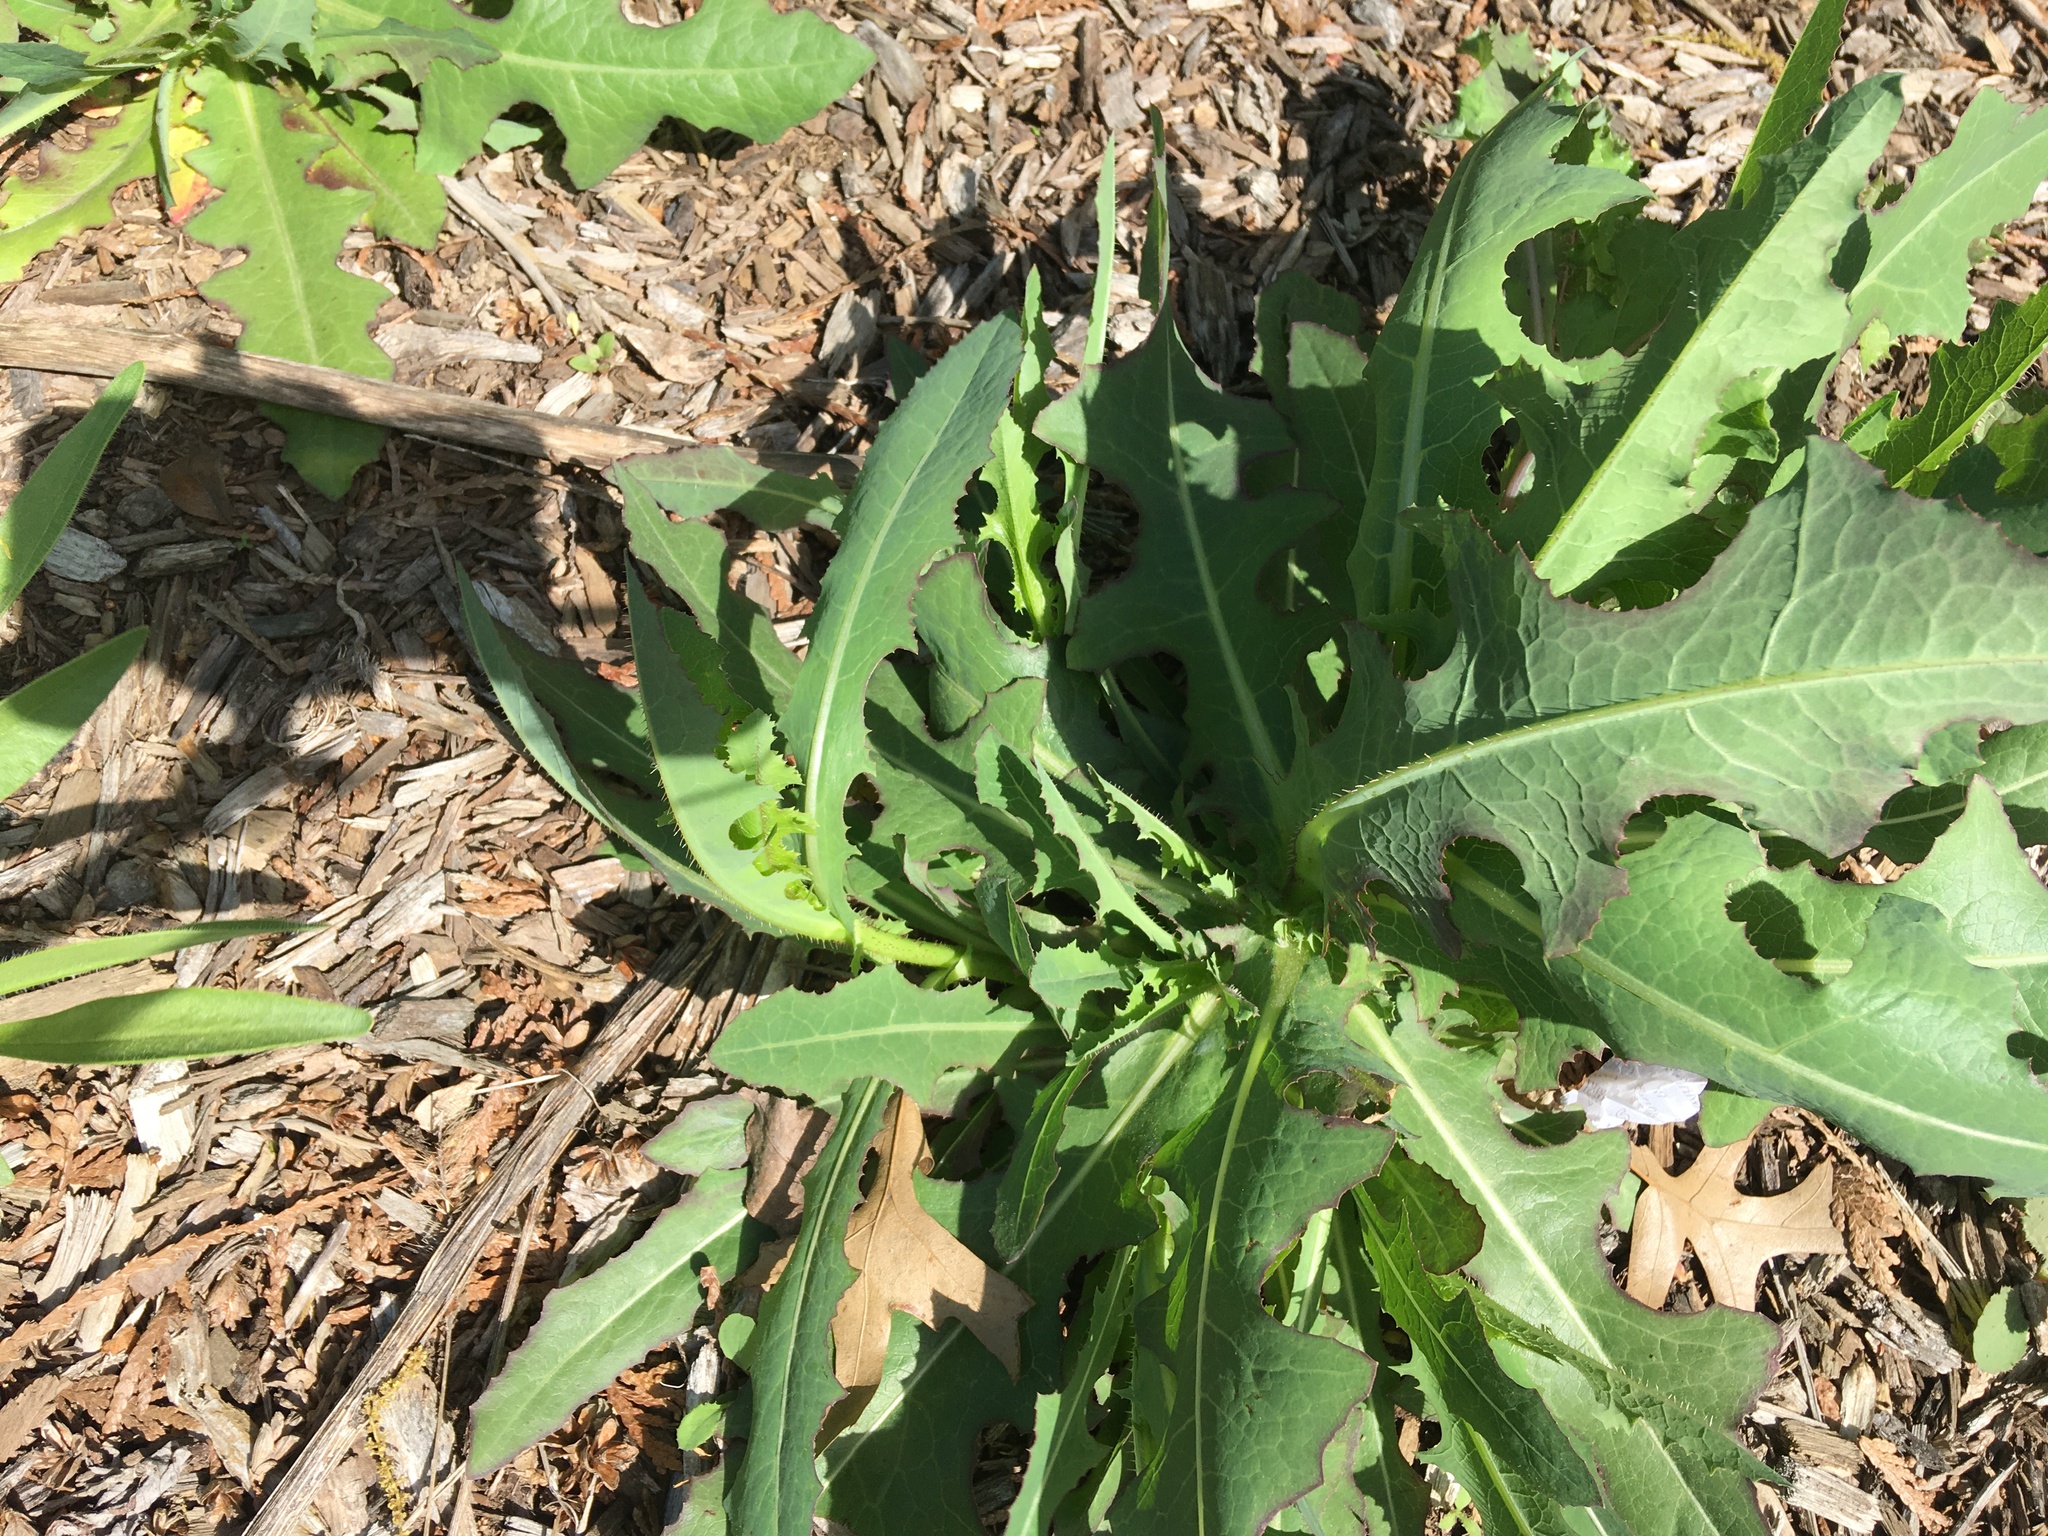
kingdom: Plantae
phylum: Tracheophyta
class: Magnoliopsida
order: Asterales
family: Asteraceae
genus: Lactuca
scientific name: Lactuca serriola
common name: Prickly lettuce
